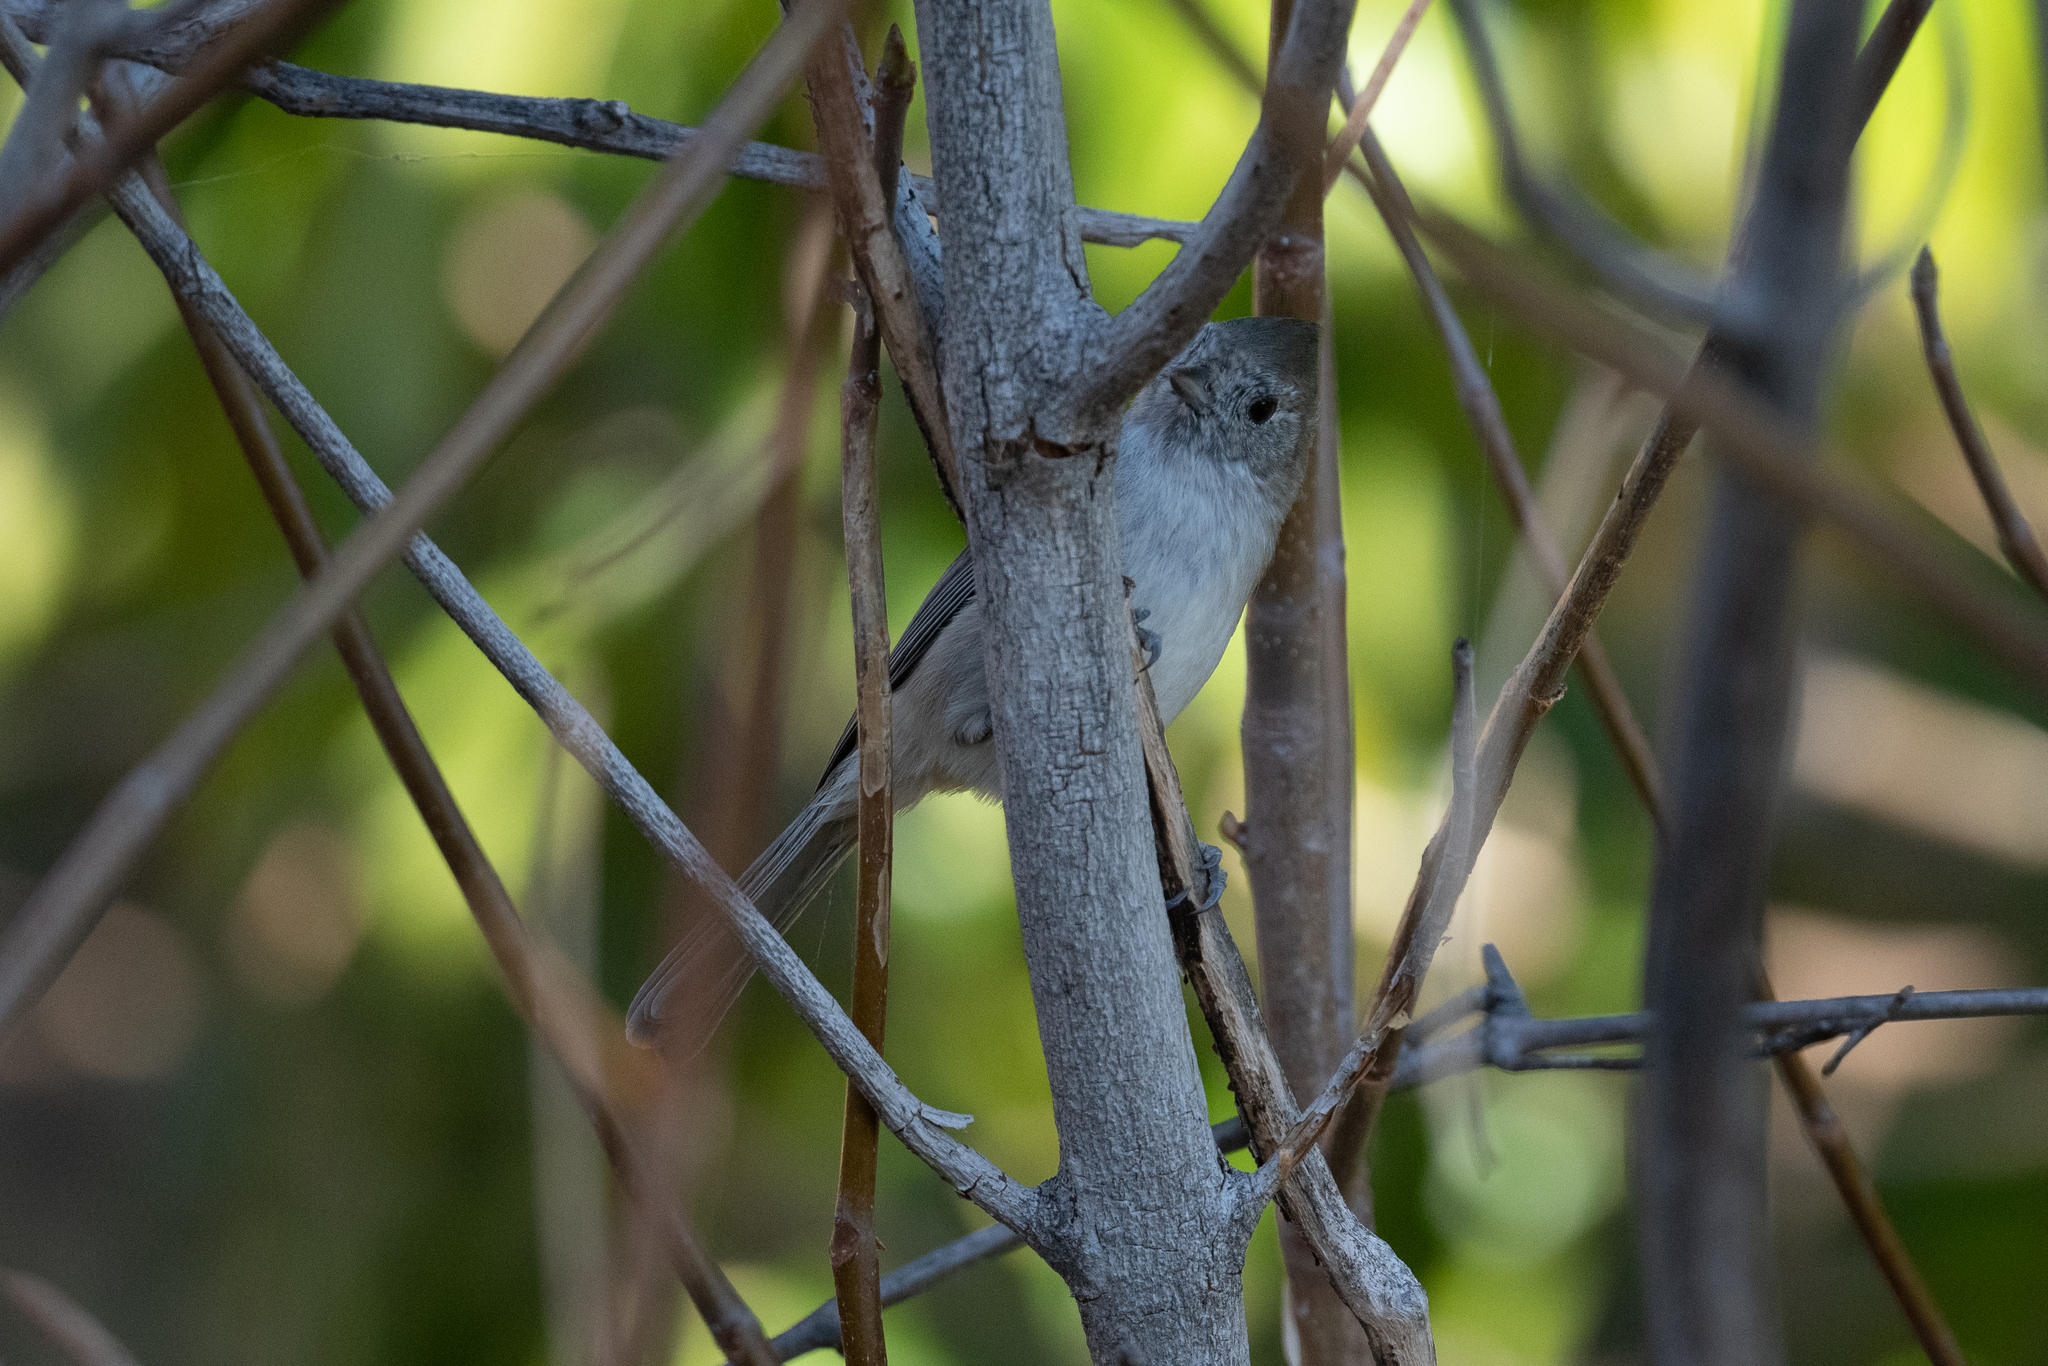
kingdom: Animalia
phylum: Chordata
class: Aves
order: Passeriformes
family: Paridae
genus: Baeolophus
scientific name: Baeolophus inornatus
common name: Oak titmouse
